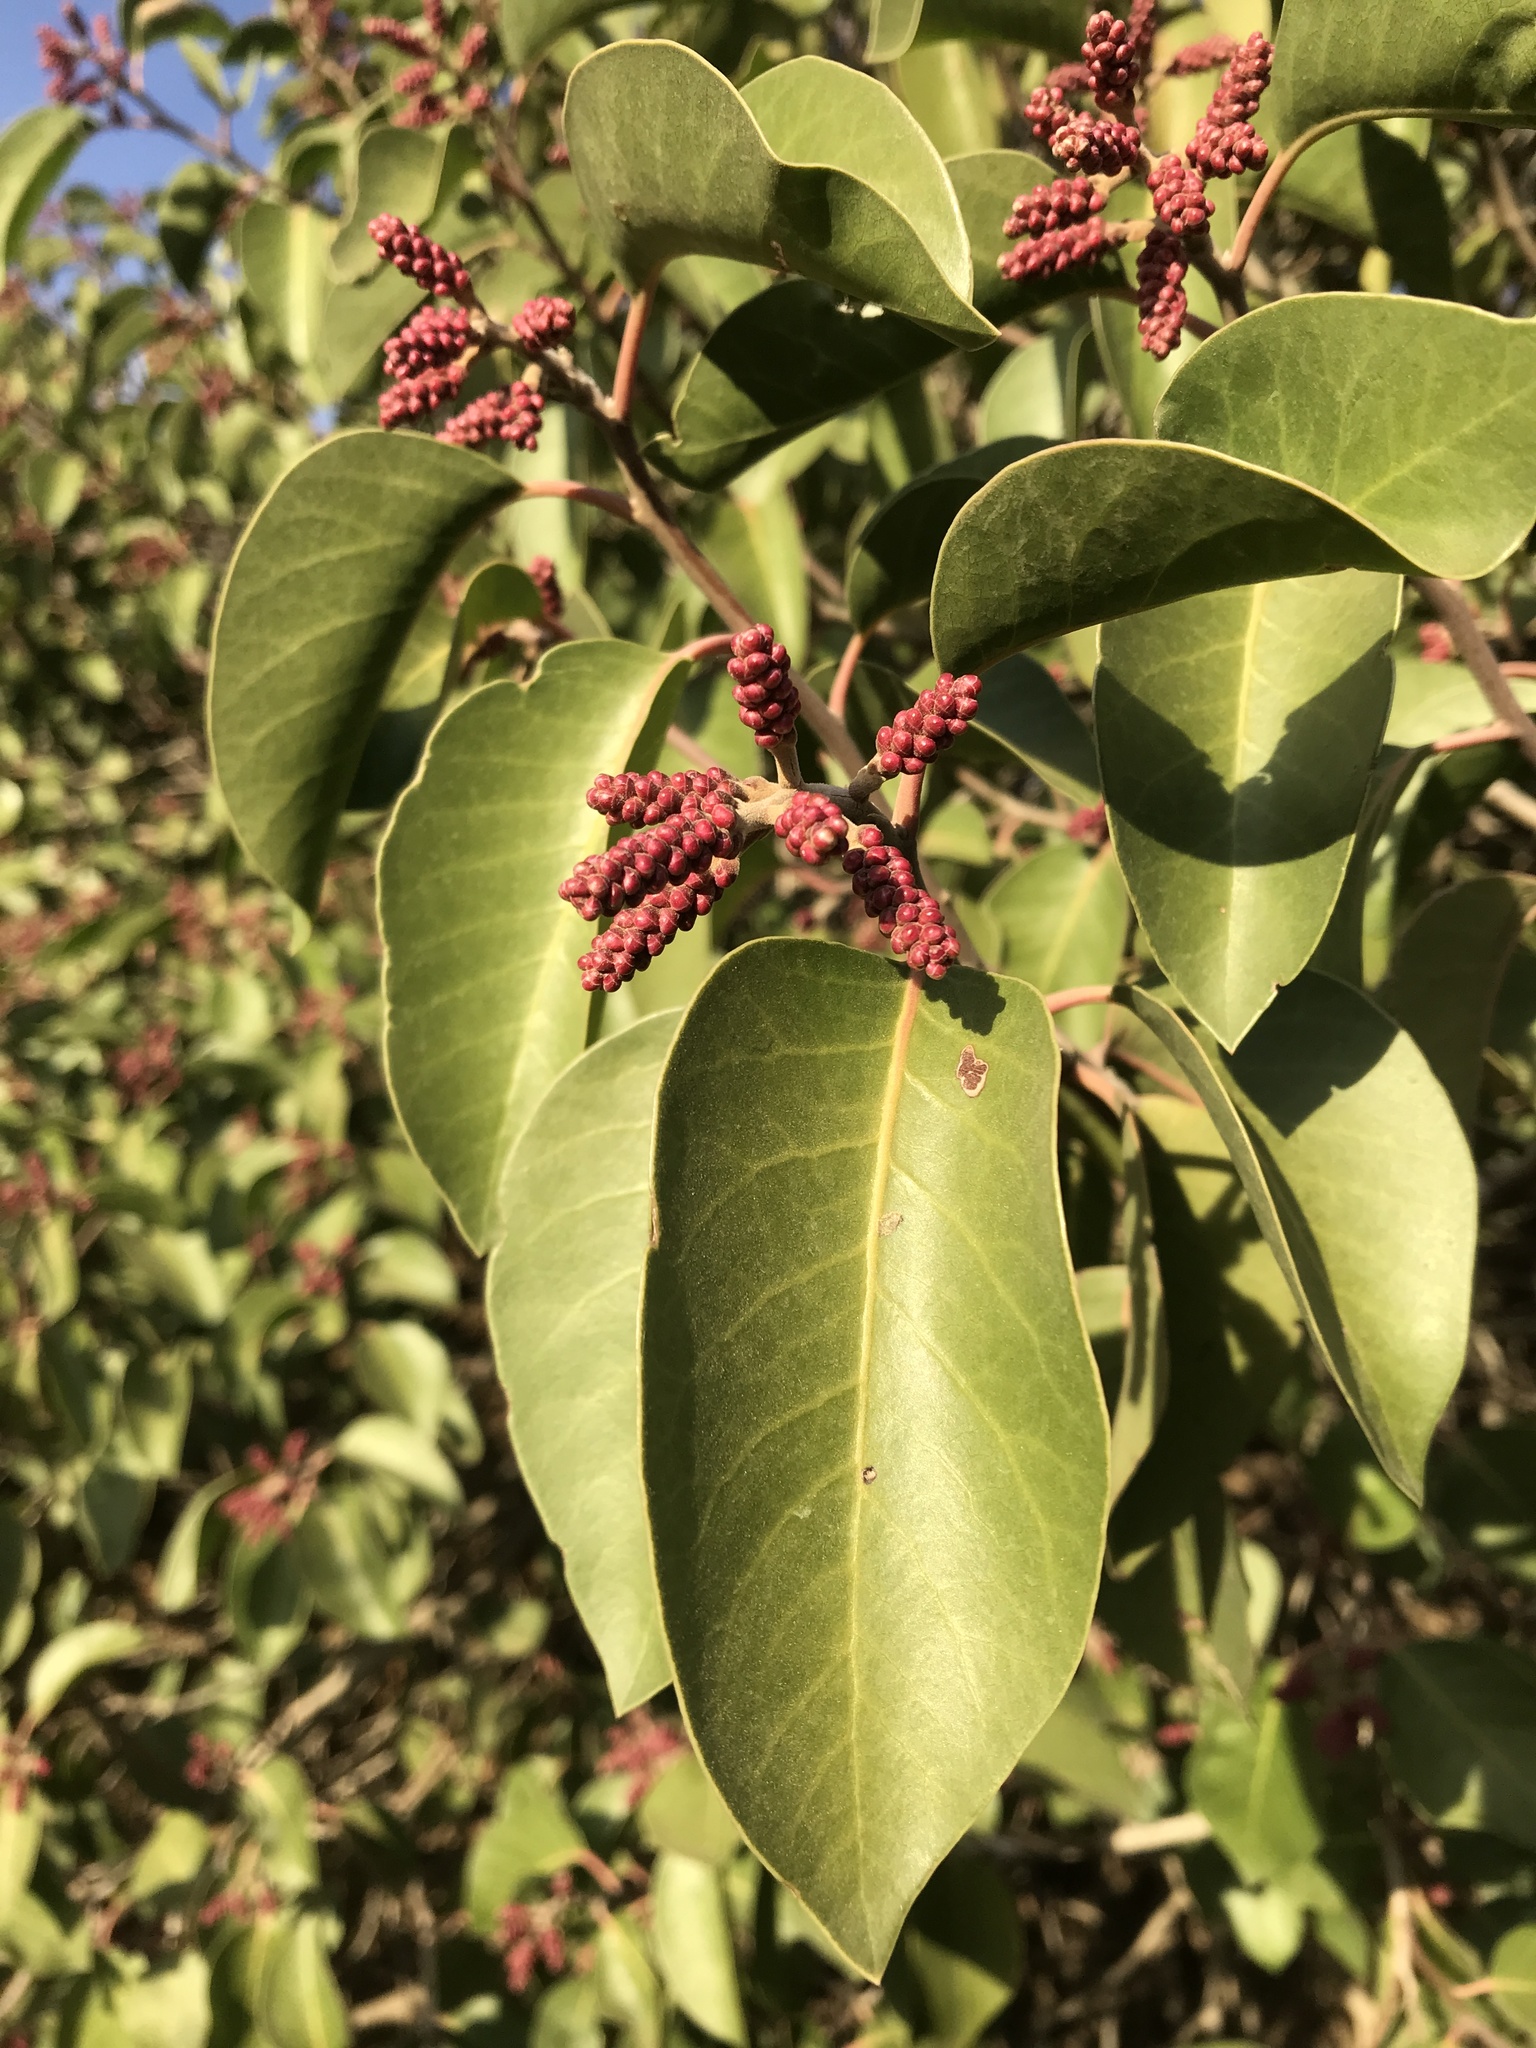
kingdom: Plantae
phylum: Tracheophyta
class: Magnoliopsida
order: Sapindales
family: Anacardiaceae
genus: Rhus
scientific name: Rhus ovata
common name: Sugar sumac
